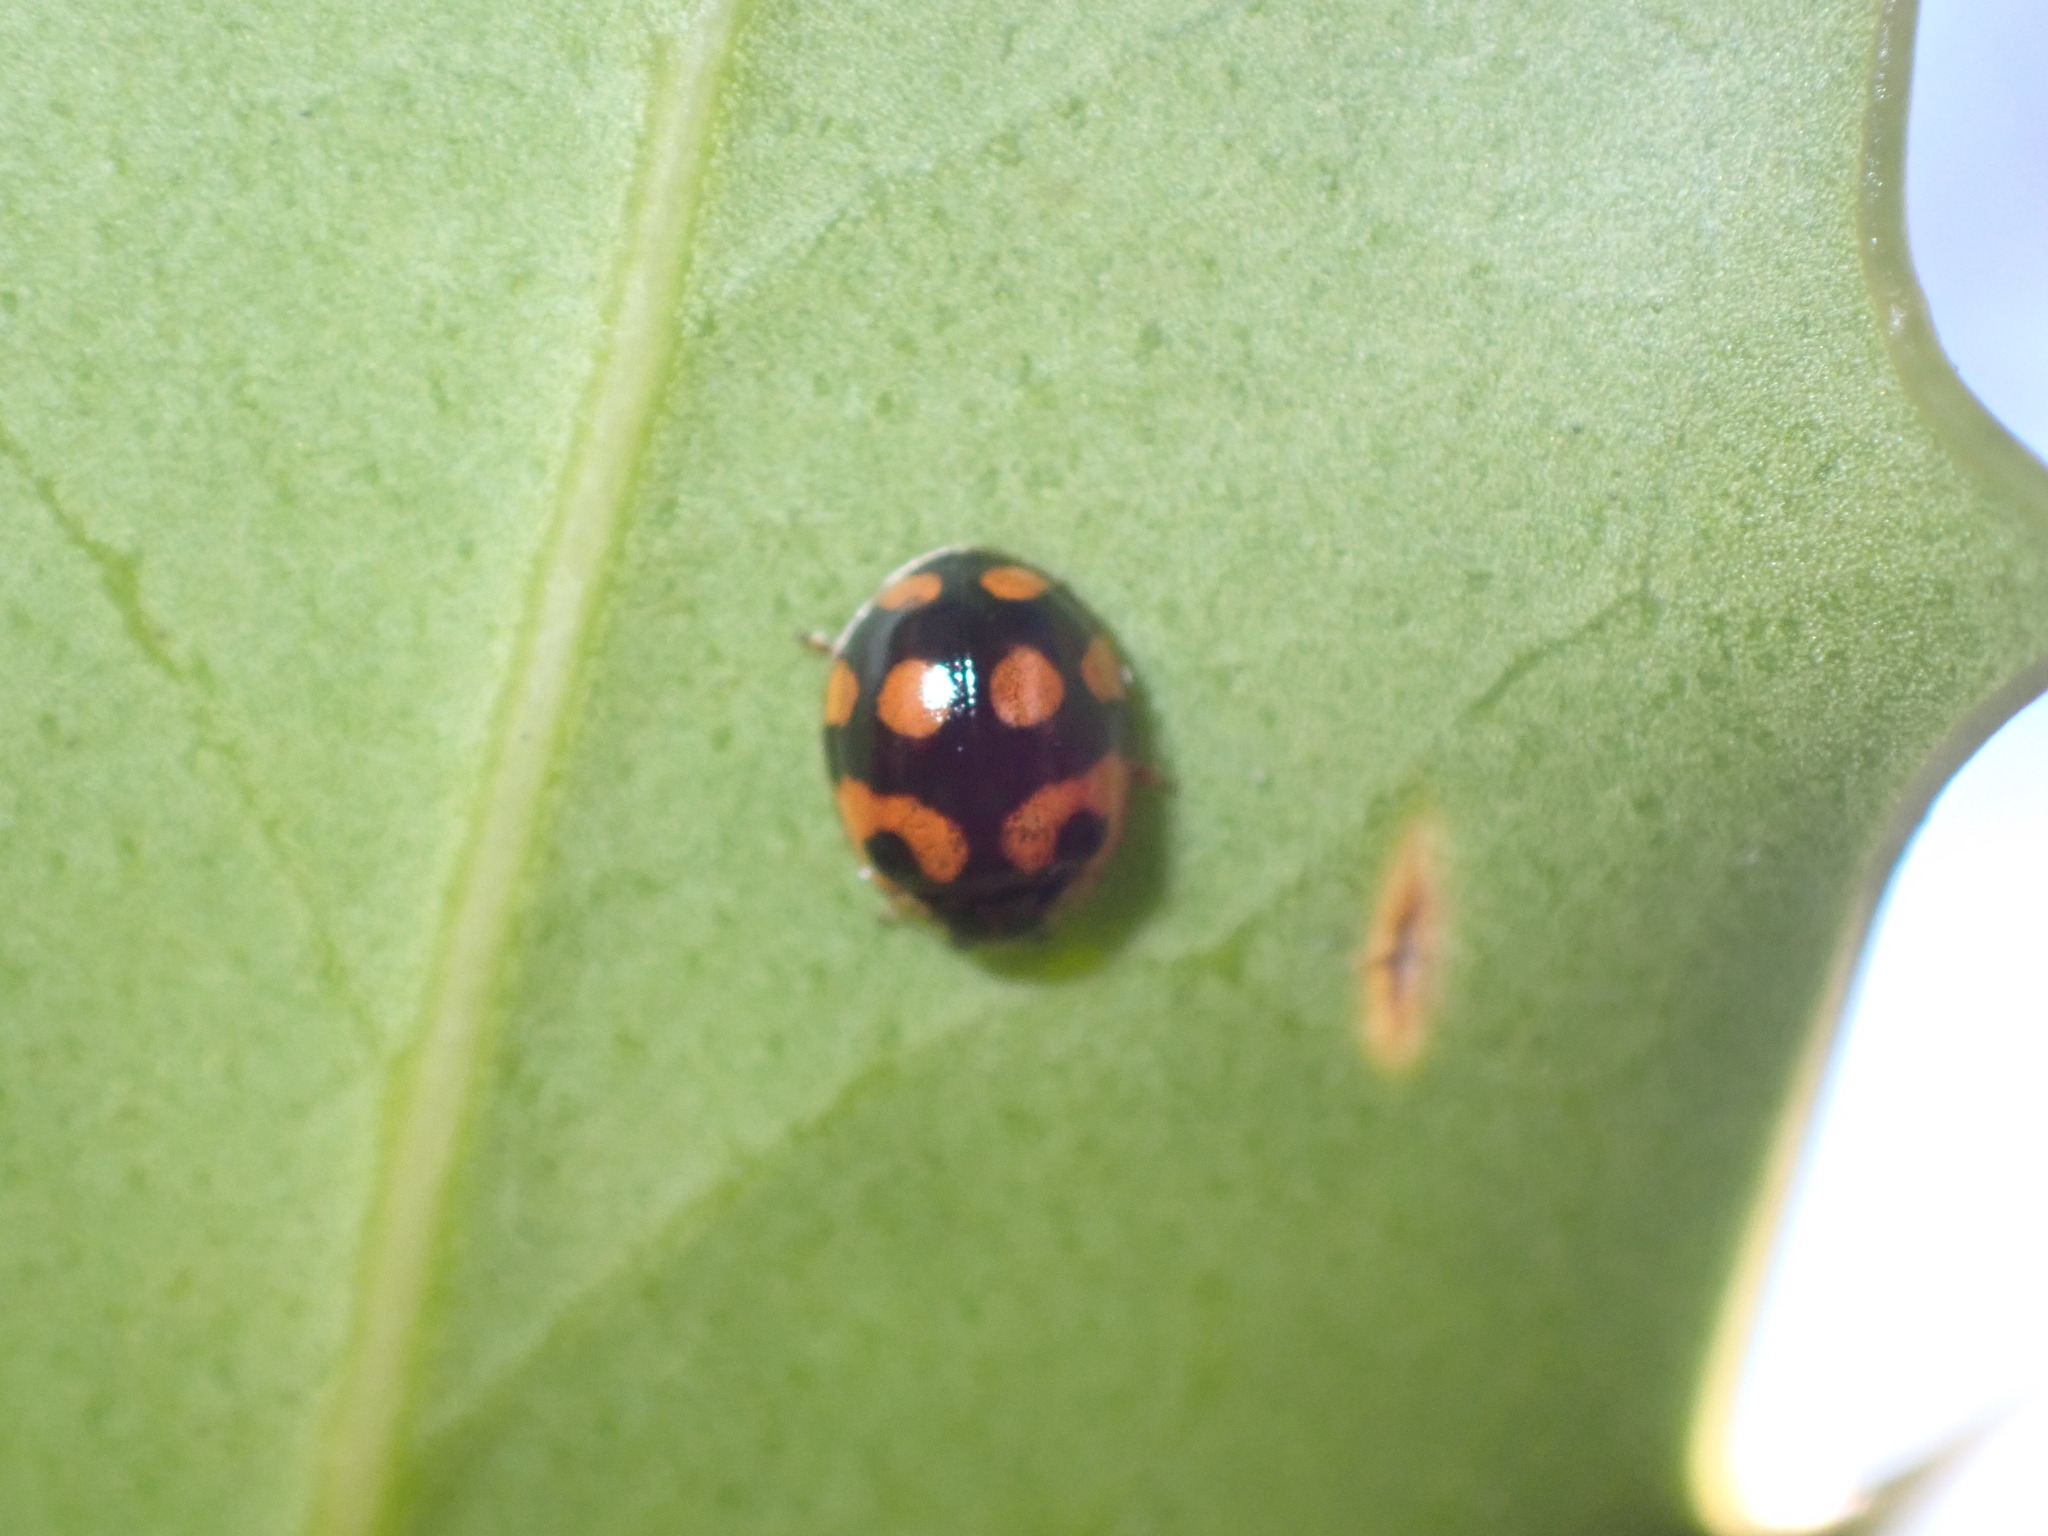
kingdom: Animalia
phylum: Arthropoda
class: Insecta
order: Coleoptera
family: Coccinellidae
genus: Adalia
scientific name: Adalia decempunctata
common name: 10-spot ladybird
